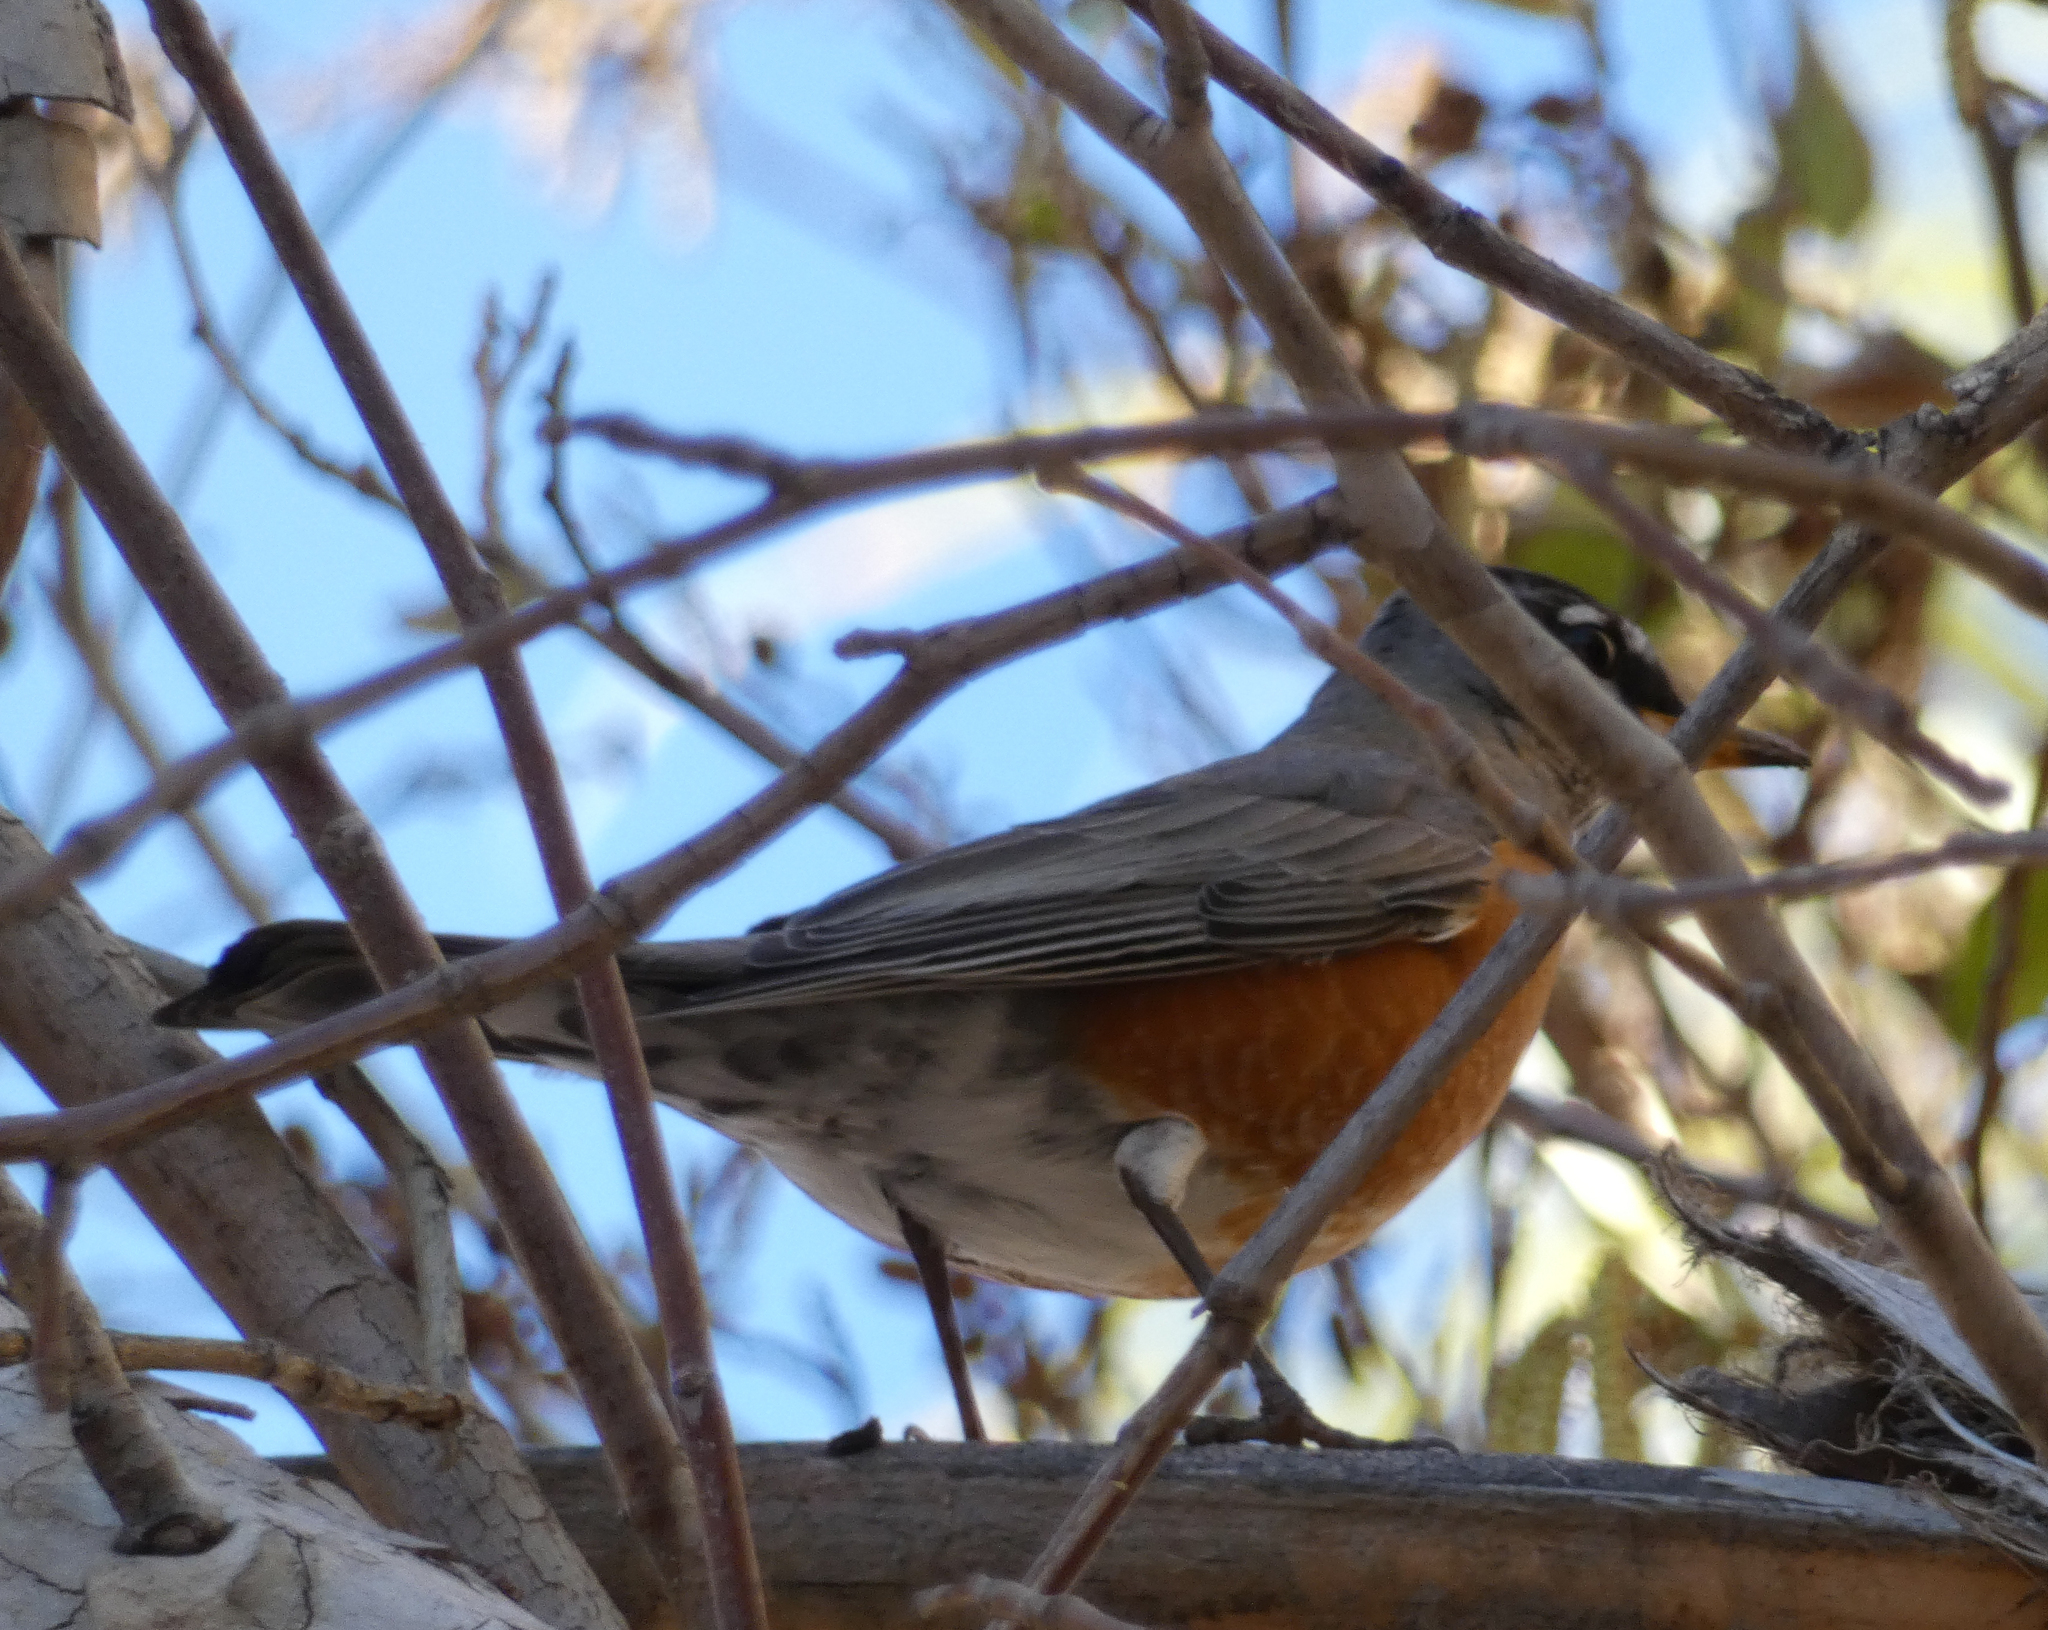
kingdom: Animalia
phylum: Chordata
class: Aves
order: Passeriformes
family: Turdidae
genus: Turdus
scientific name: Turdus migratorius
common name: American robin
